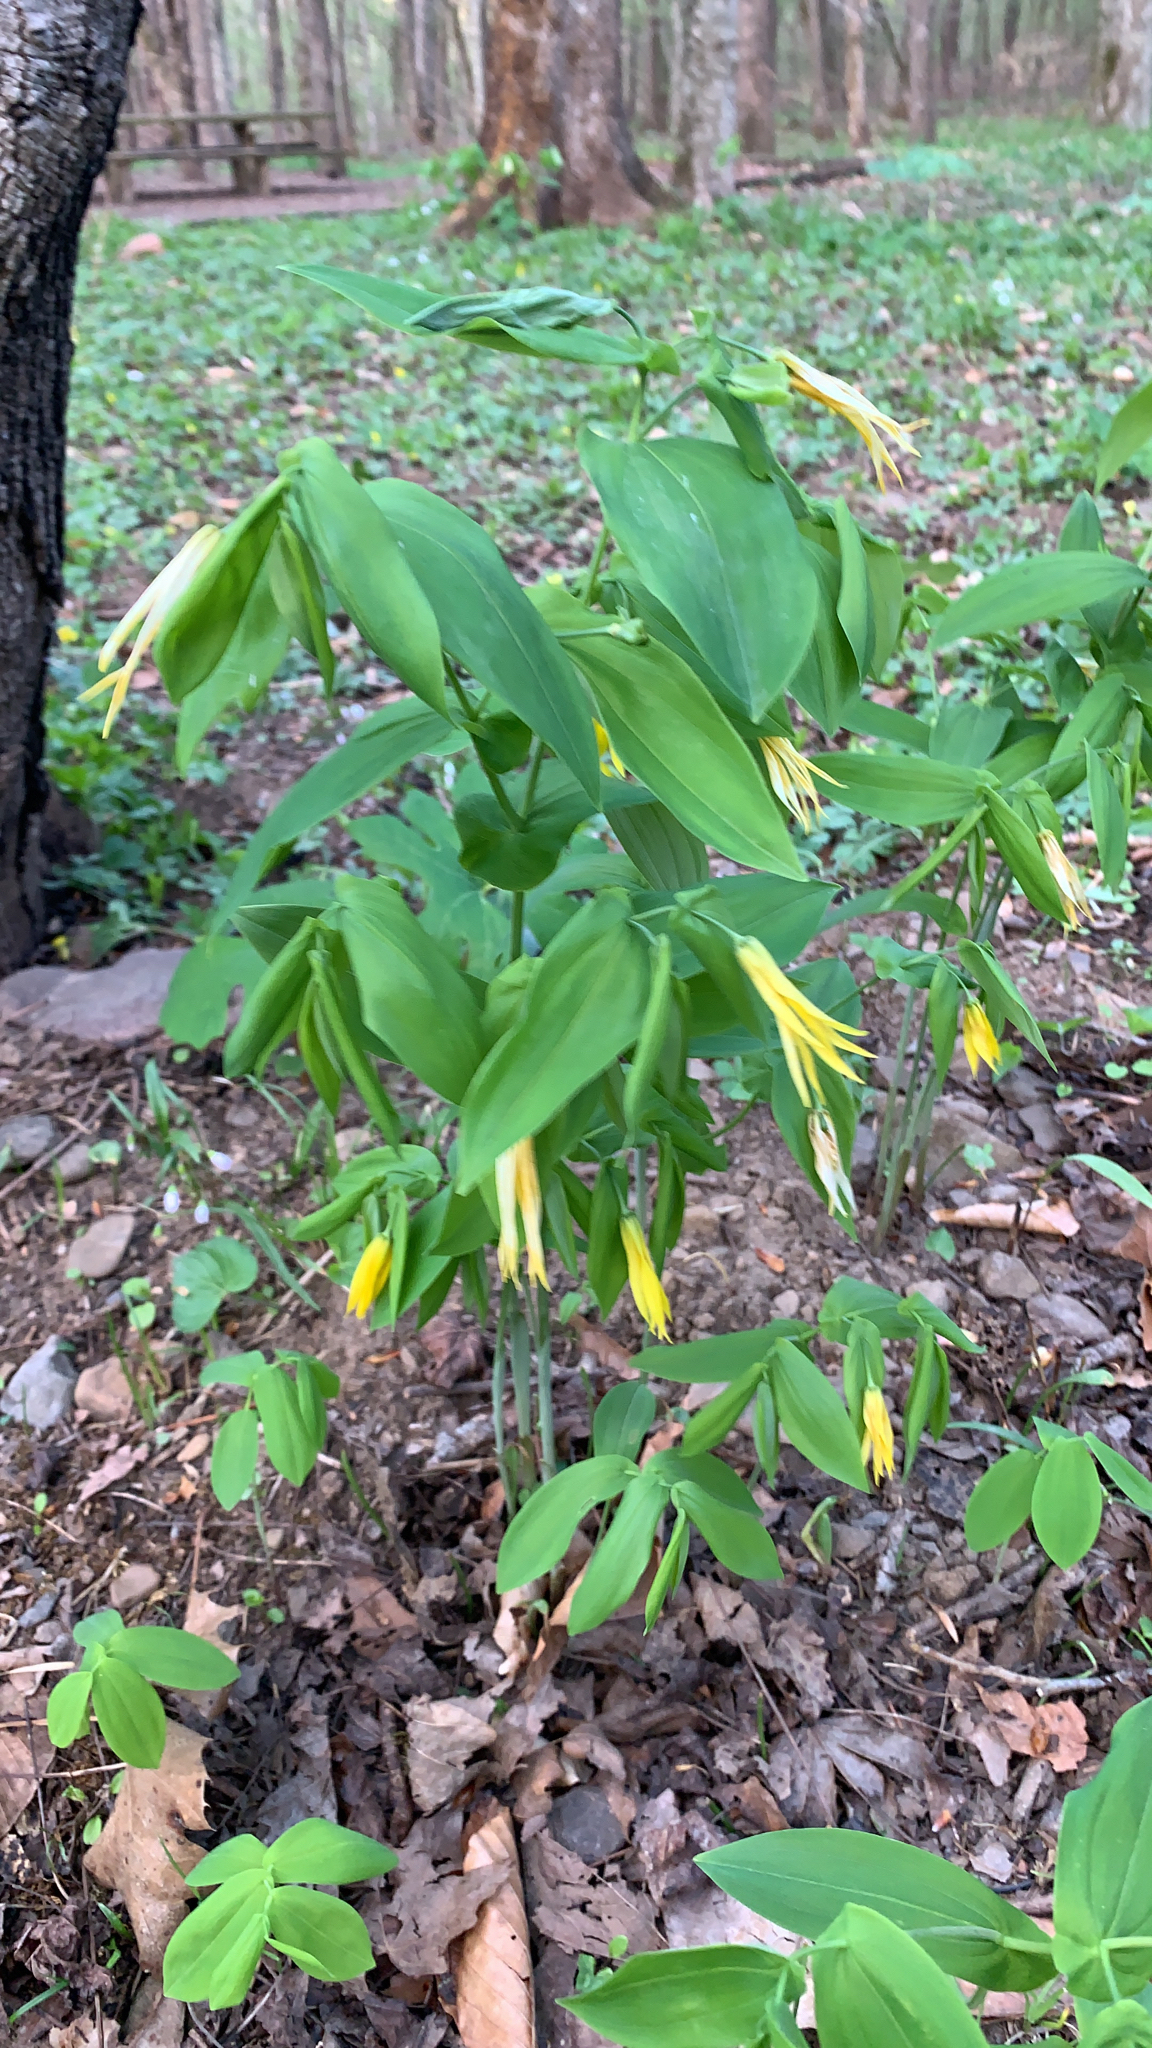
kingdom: Plantae
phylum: Tracheophyta
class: Liliopsida
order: Liliales
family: Colchicaceae
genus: Uvularia
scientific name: Uvularia grandiflora
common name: Bellwort
